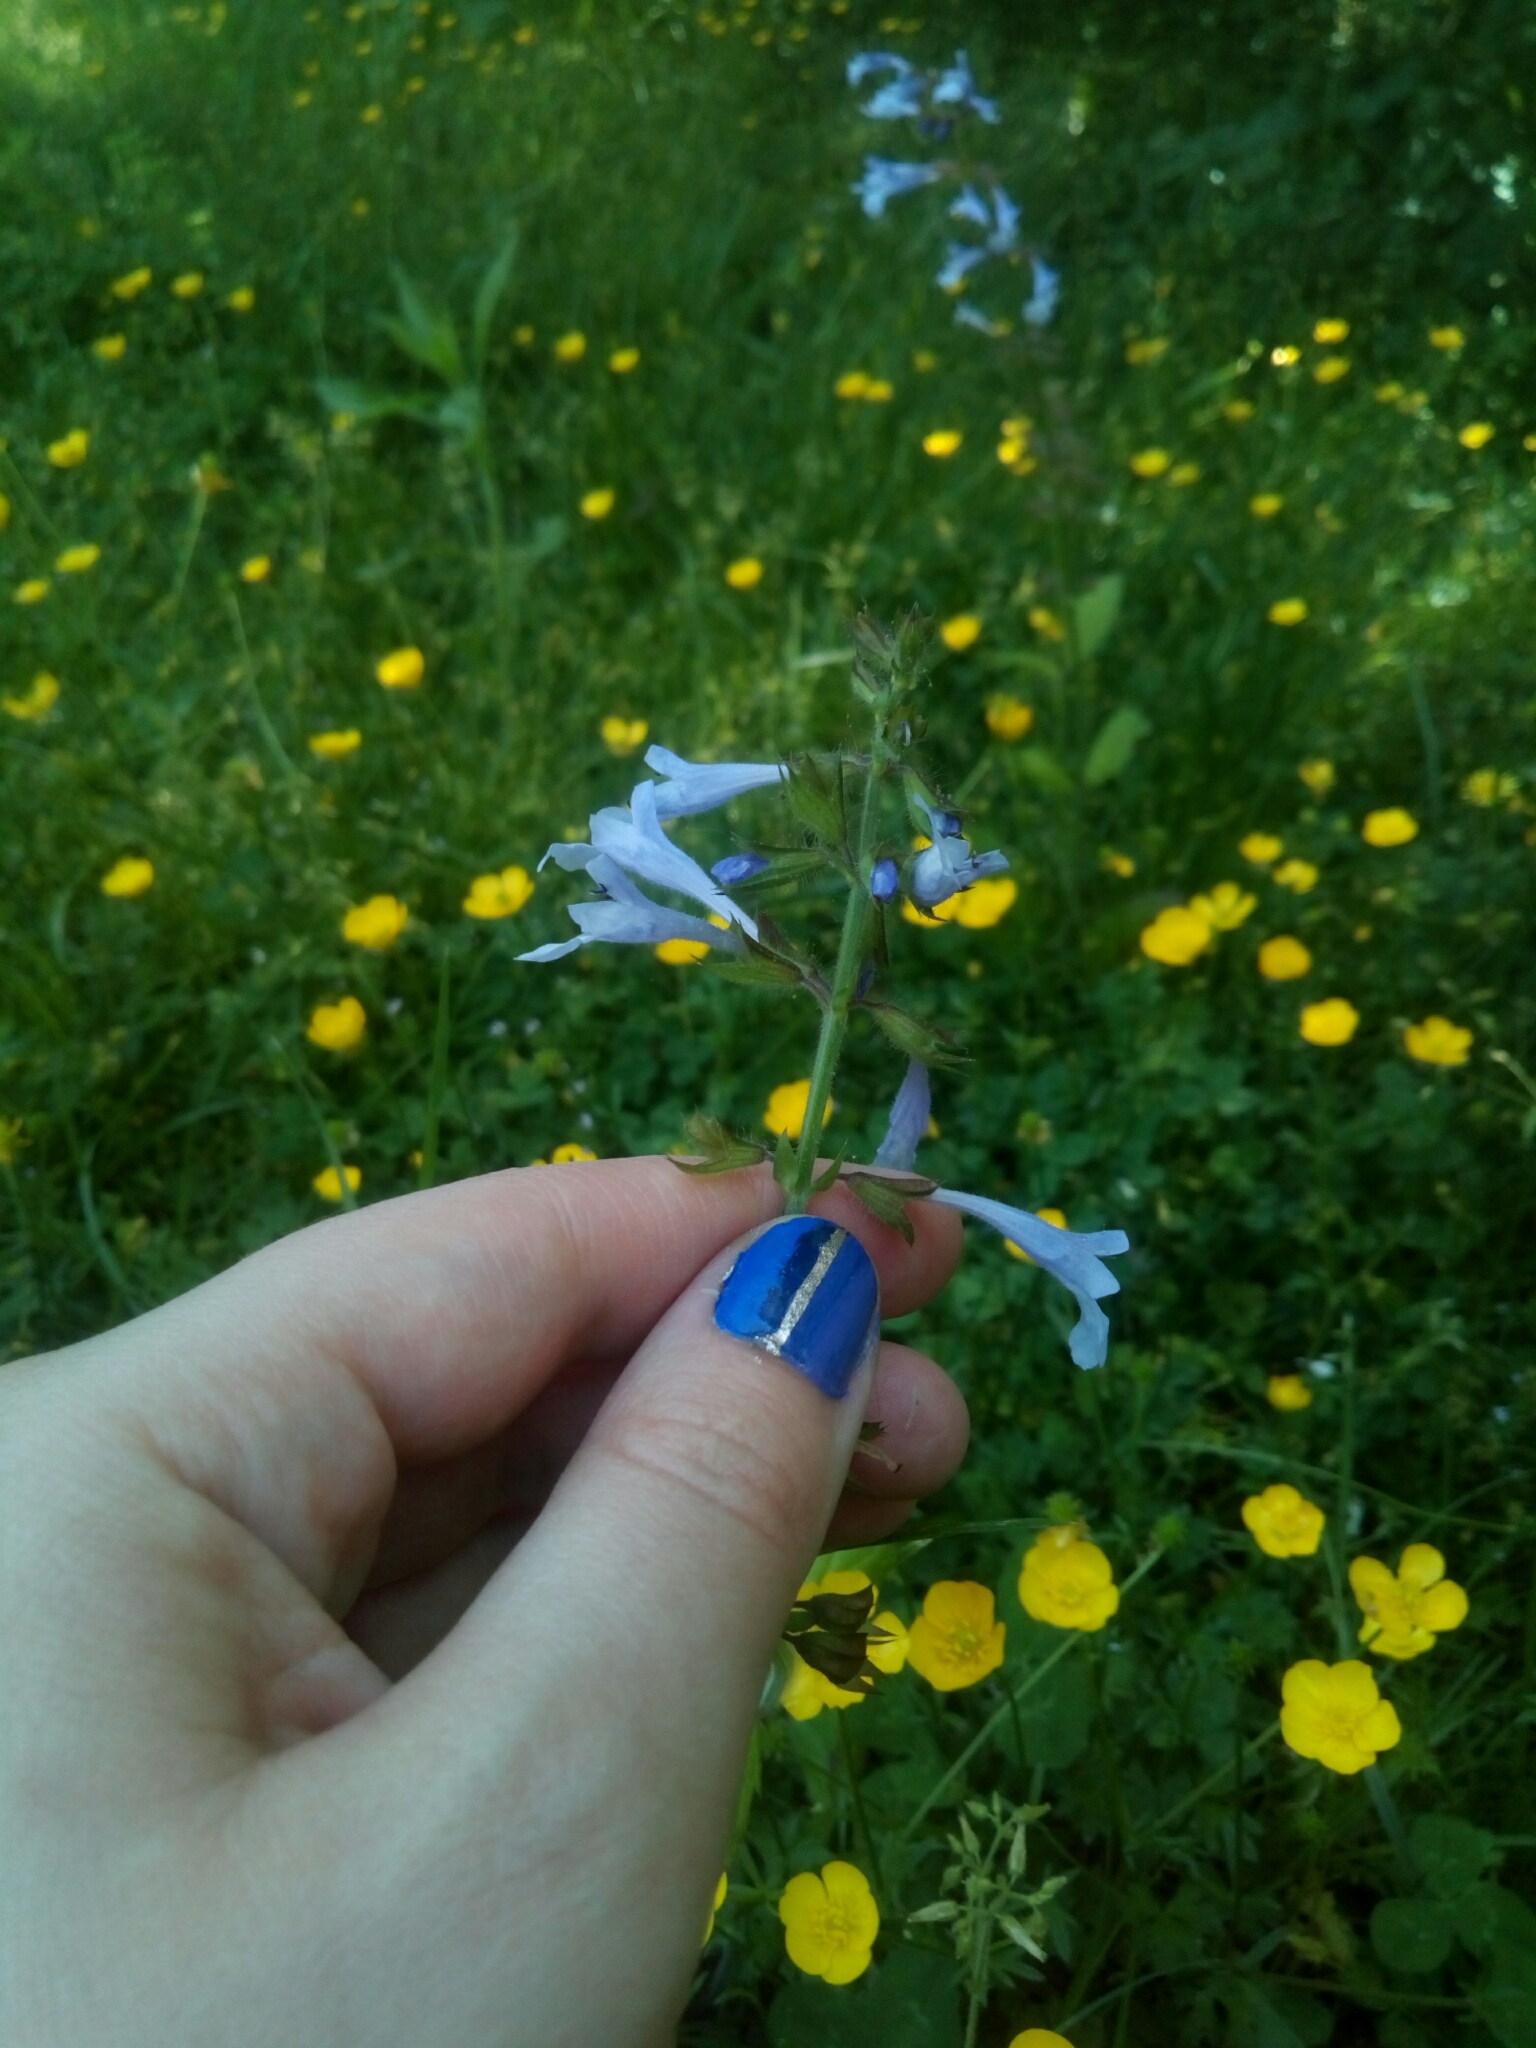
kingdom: Plantae
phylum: Tracheophyta
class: Magnoliopsida
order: Lamiales
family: Lamiaceae
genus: Salvia
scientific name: Salvia lyrata
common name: Cancerweed
